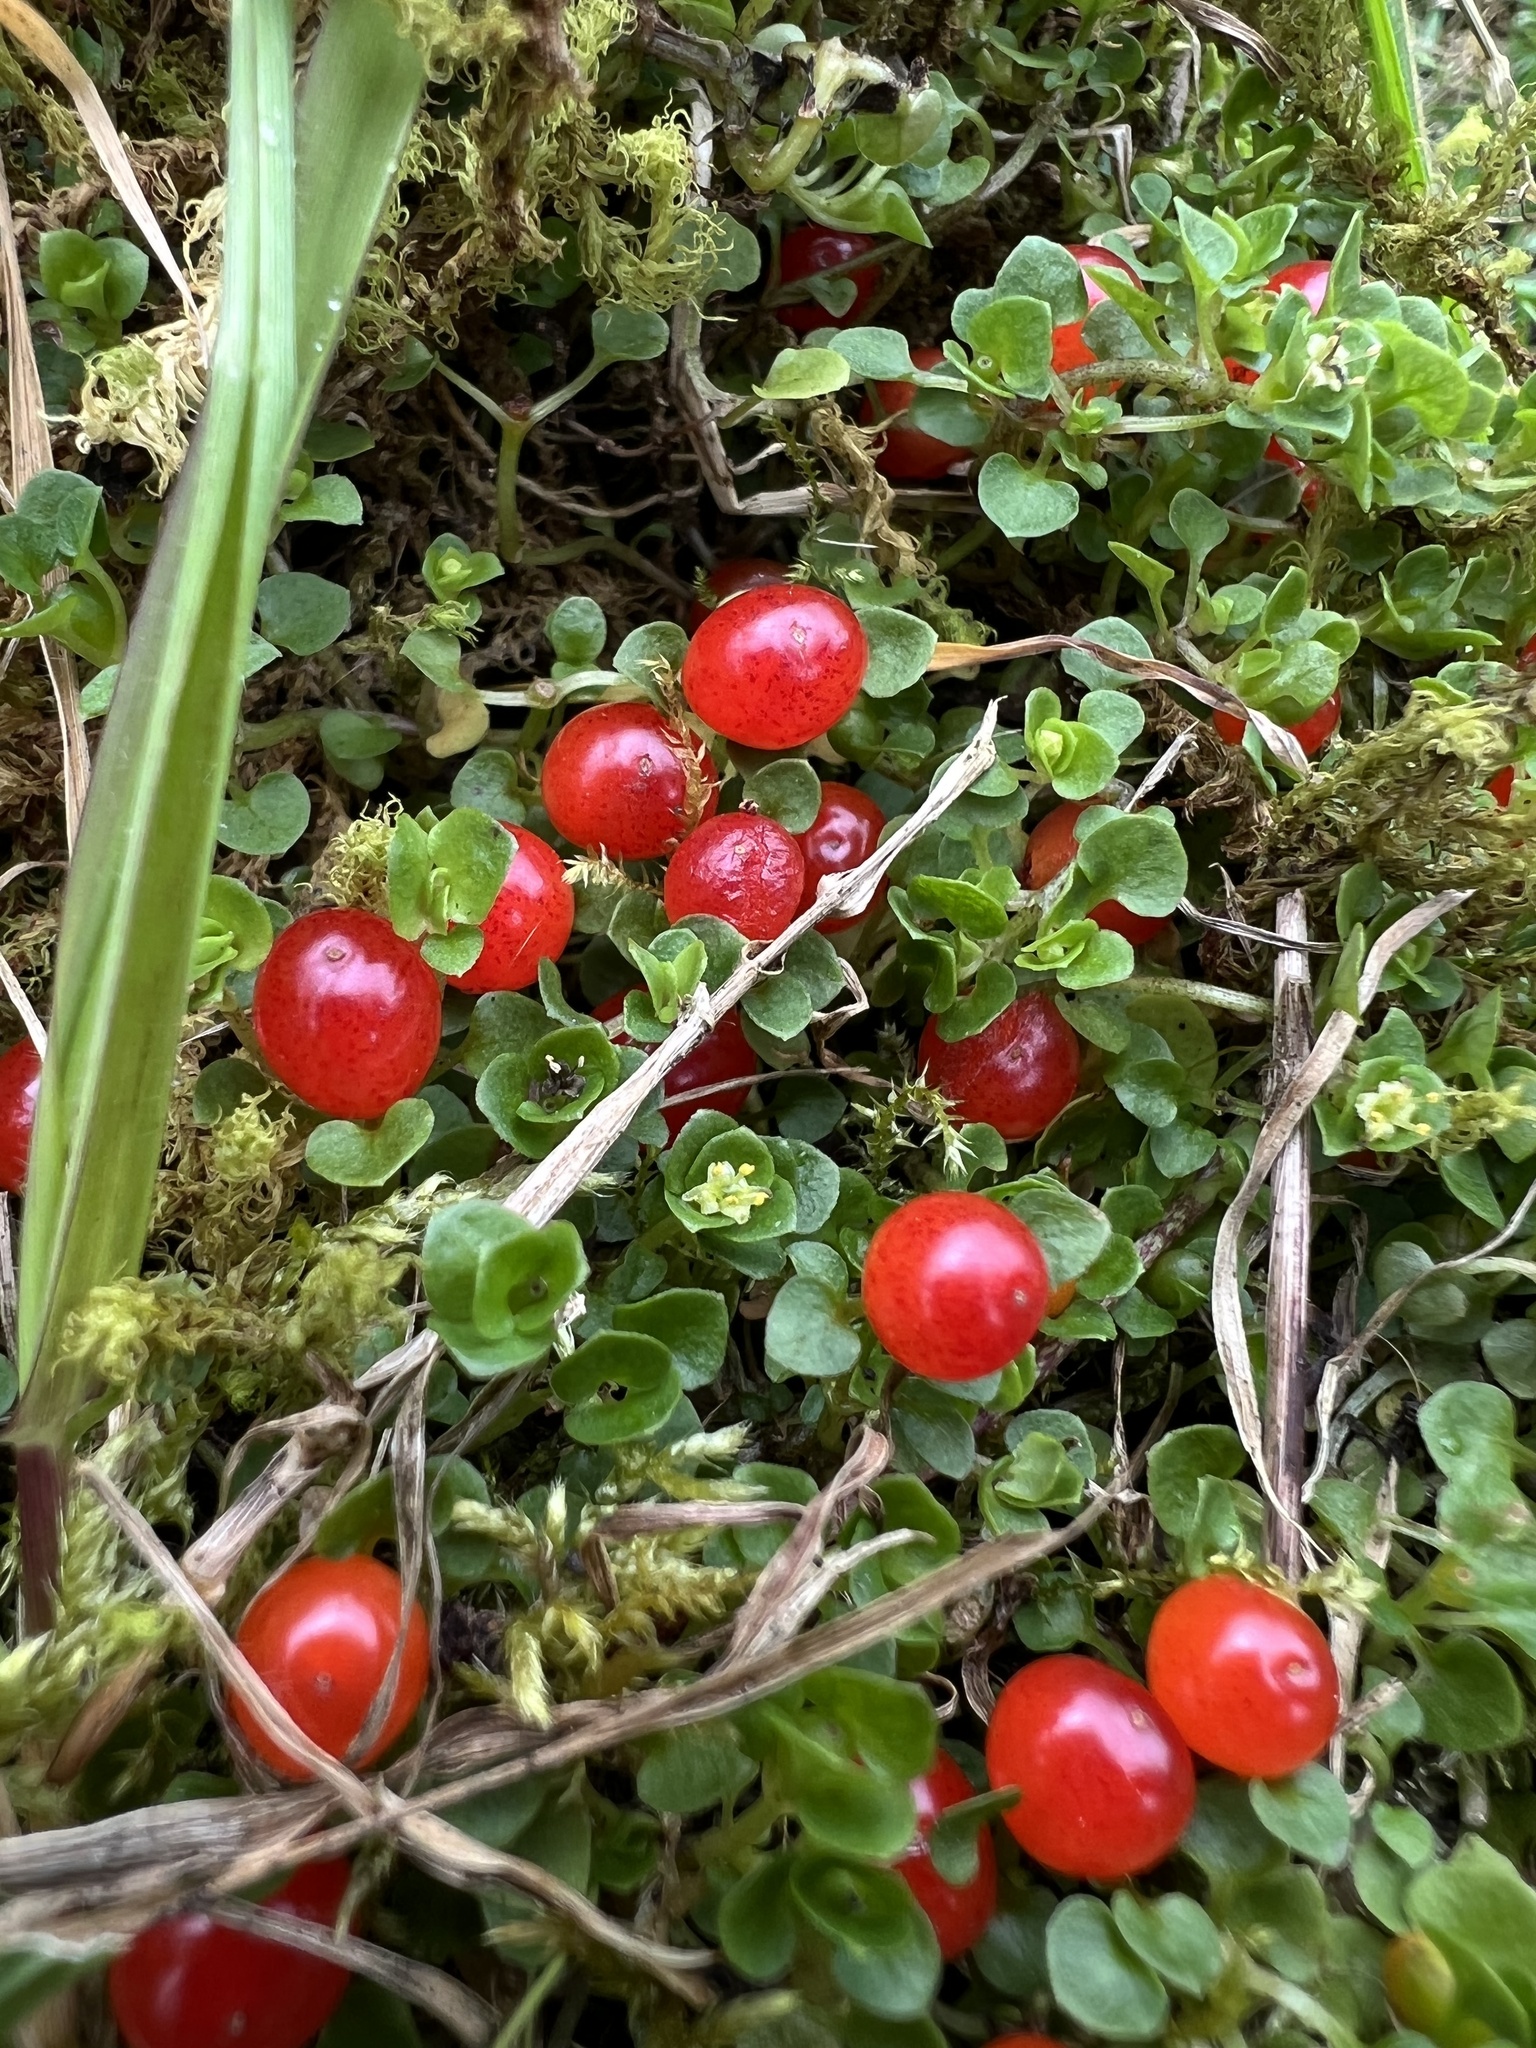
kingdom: Plantae
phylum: Tracheophyta
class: Magnoliopsida
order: Gentianales
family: Rubiaceae
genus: Nertera
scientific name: Nertera granadensis
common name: Beadplant
